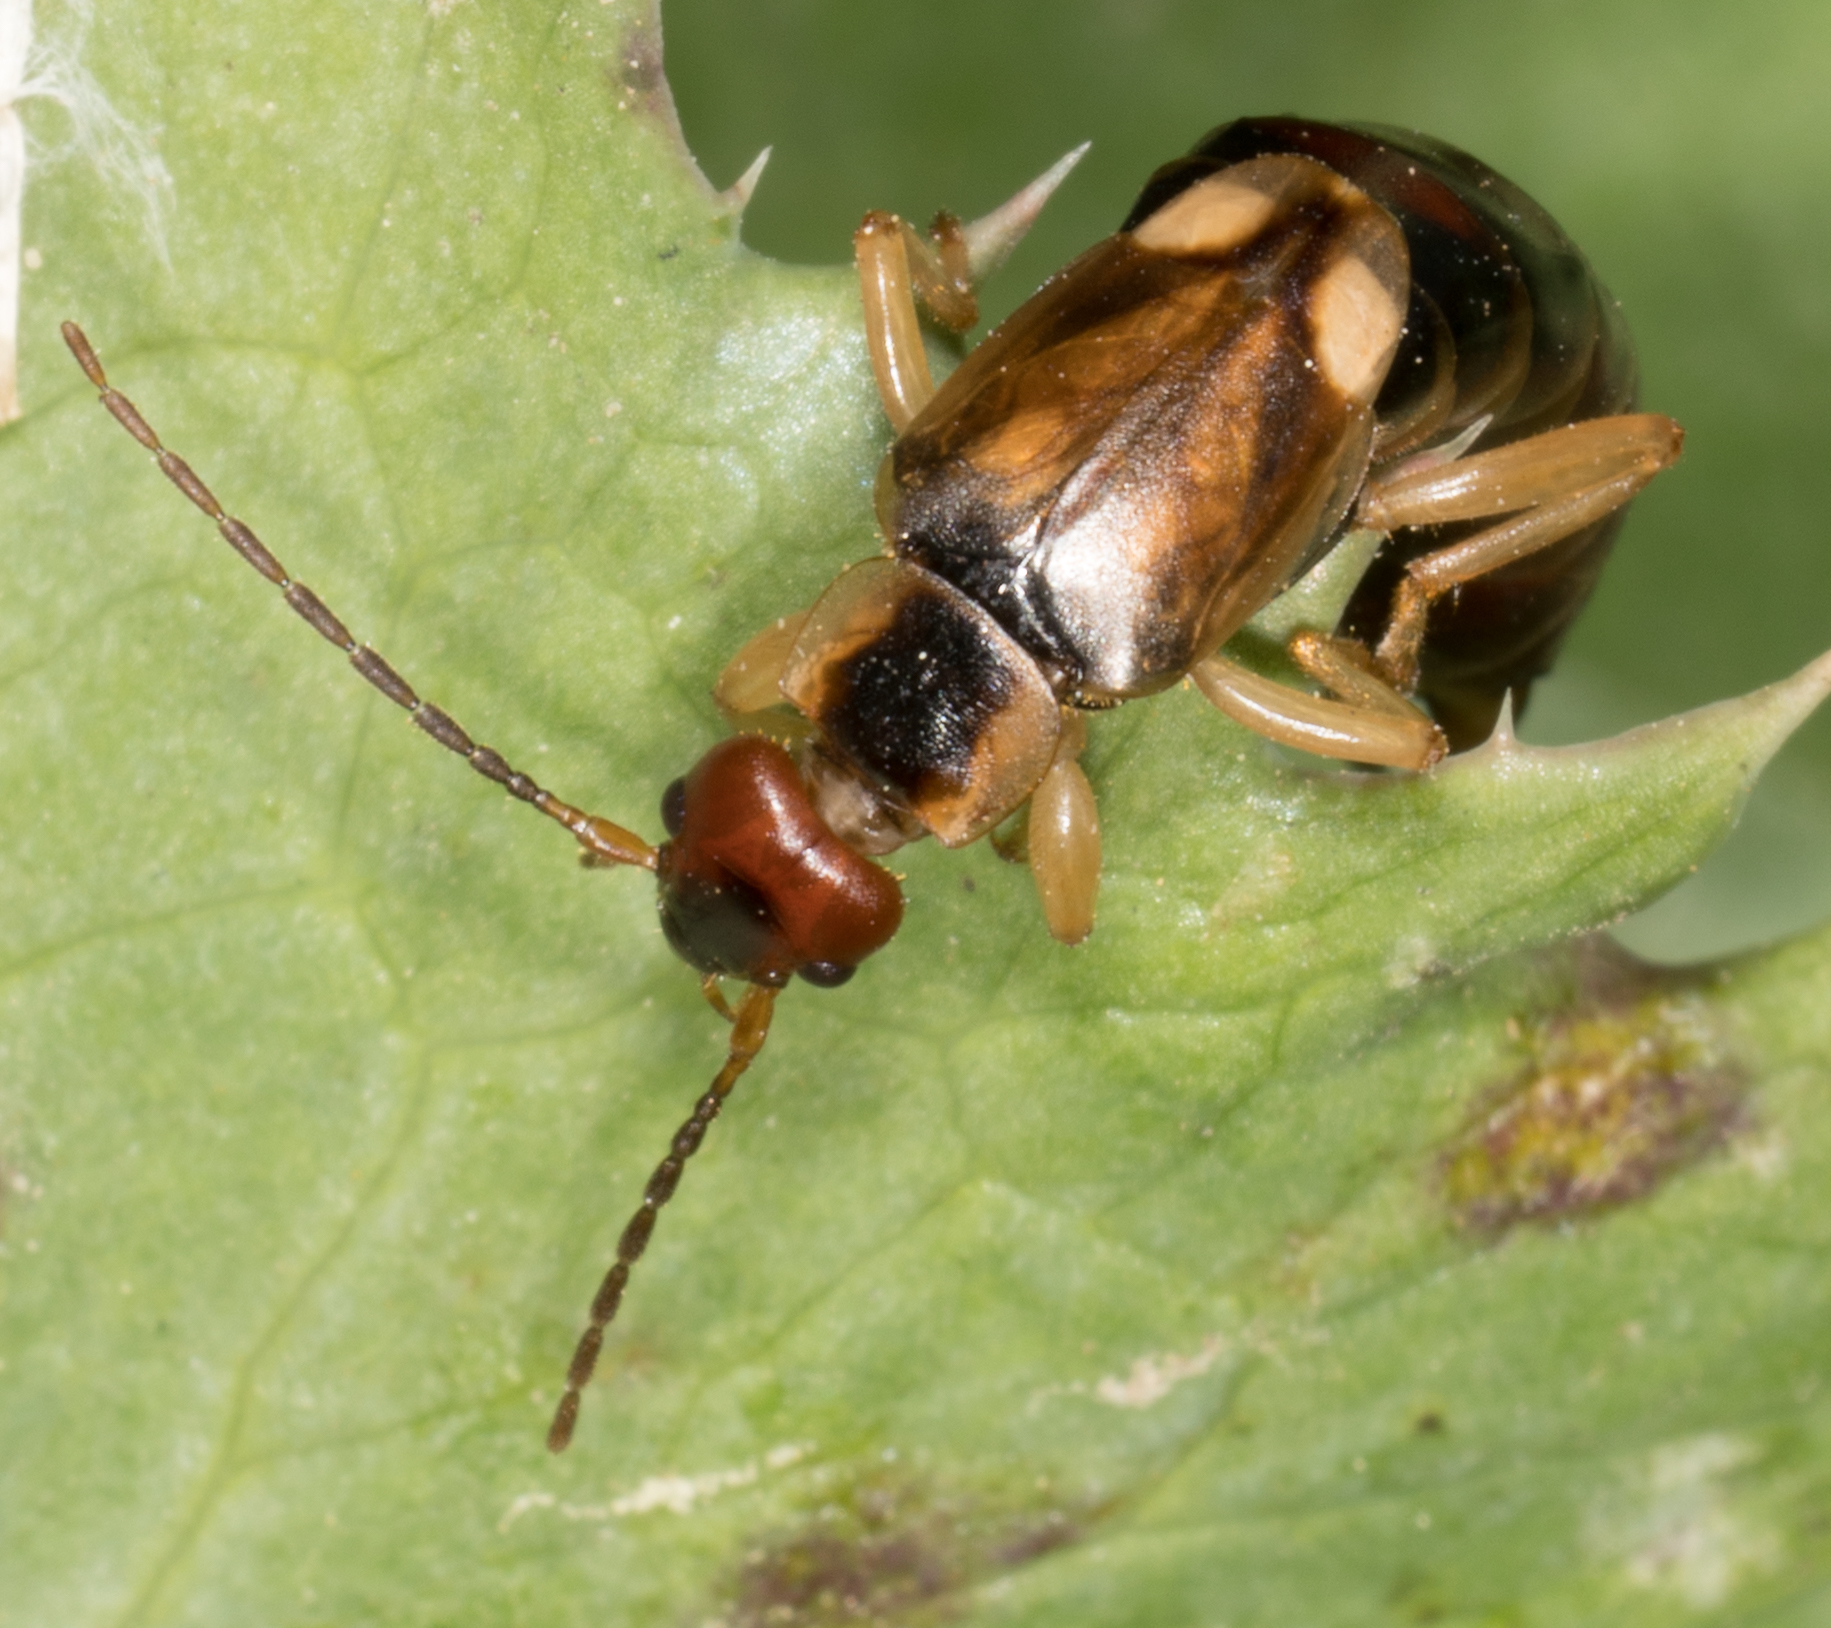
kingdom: Animalia
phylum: Arthropoda
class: Insecta
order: Dermaptera
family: Forficulidae
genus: Forficula
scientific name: Forficula
